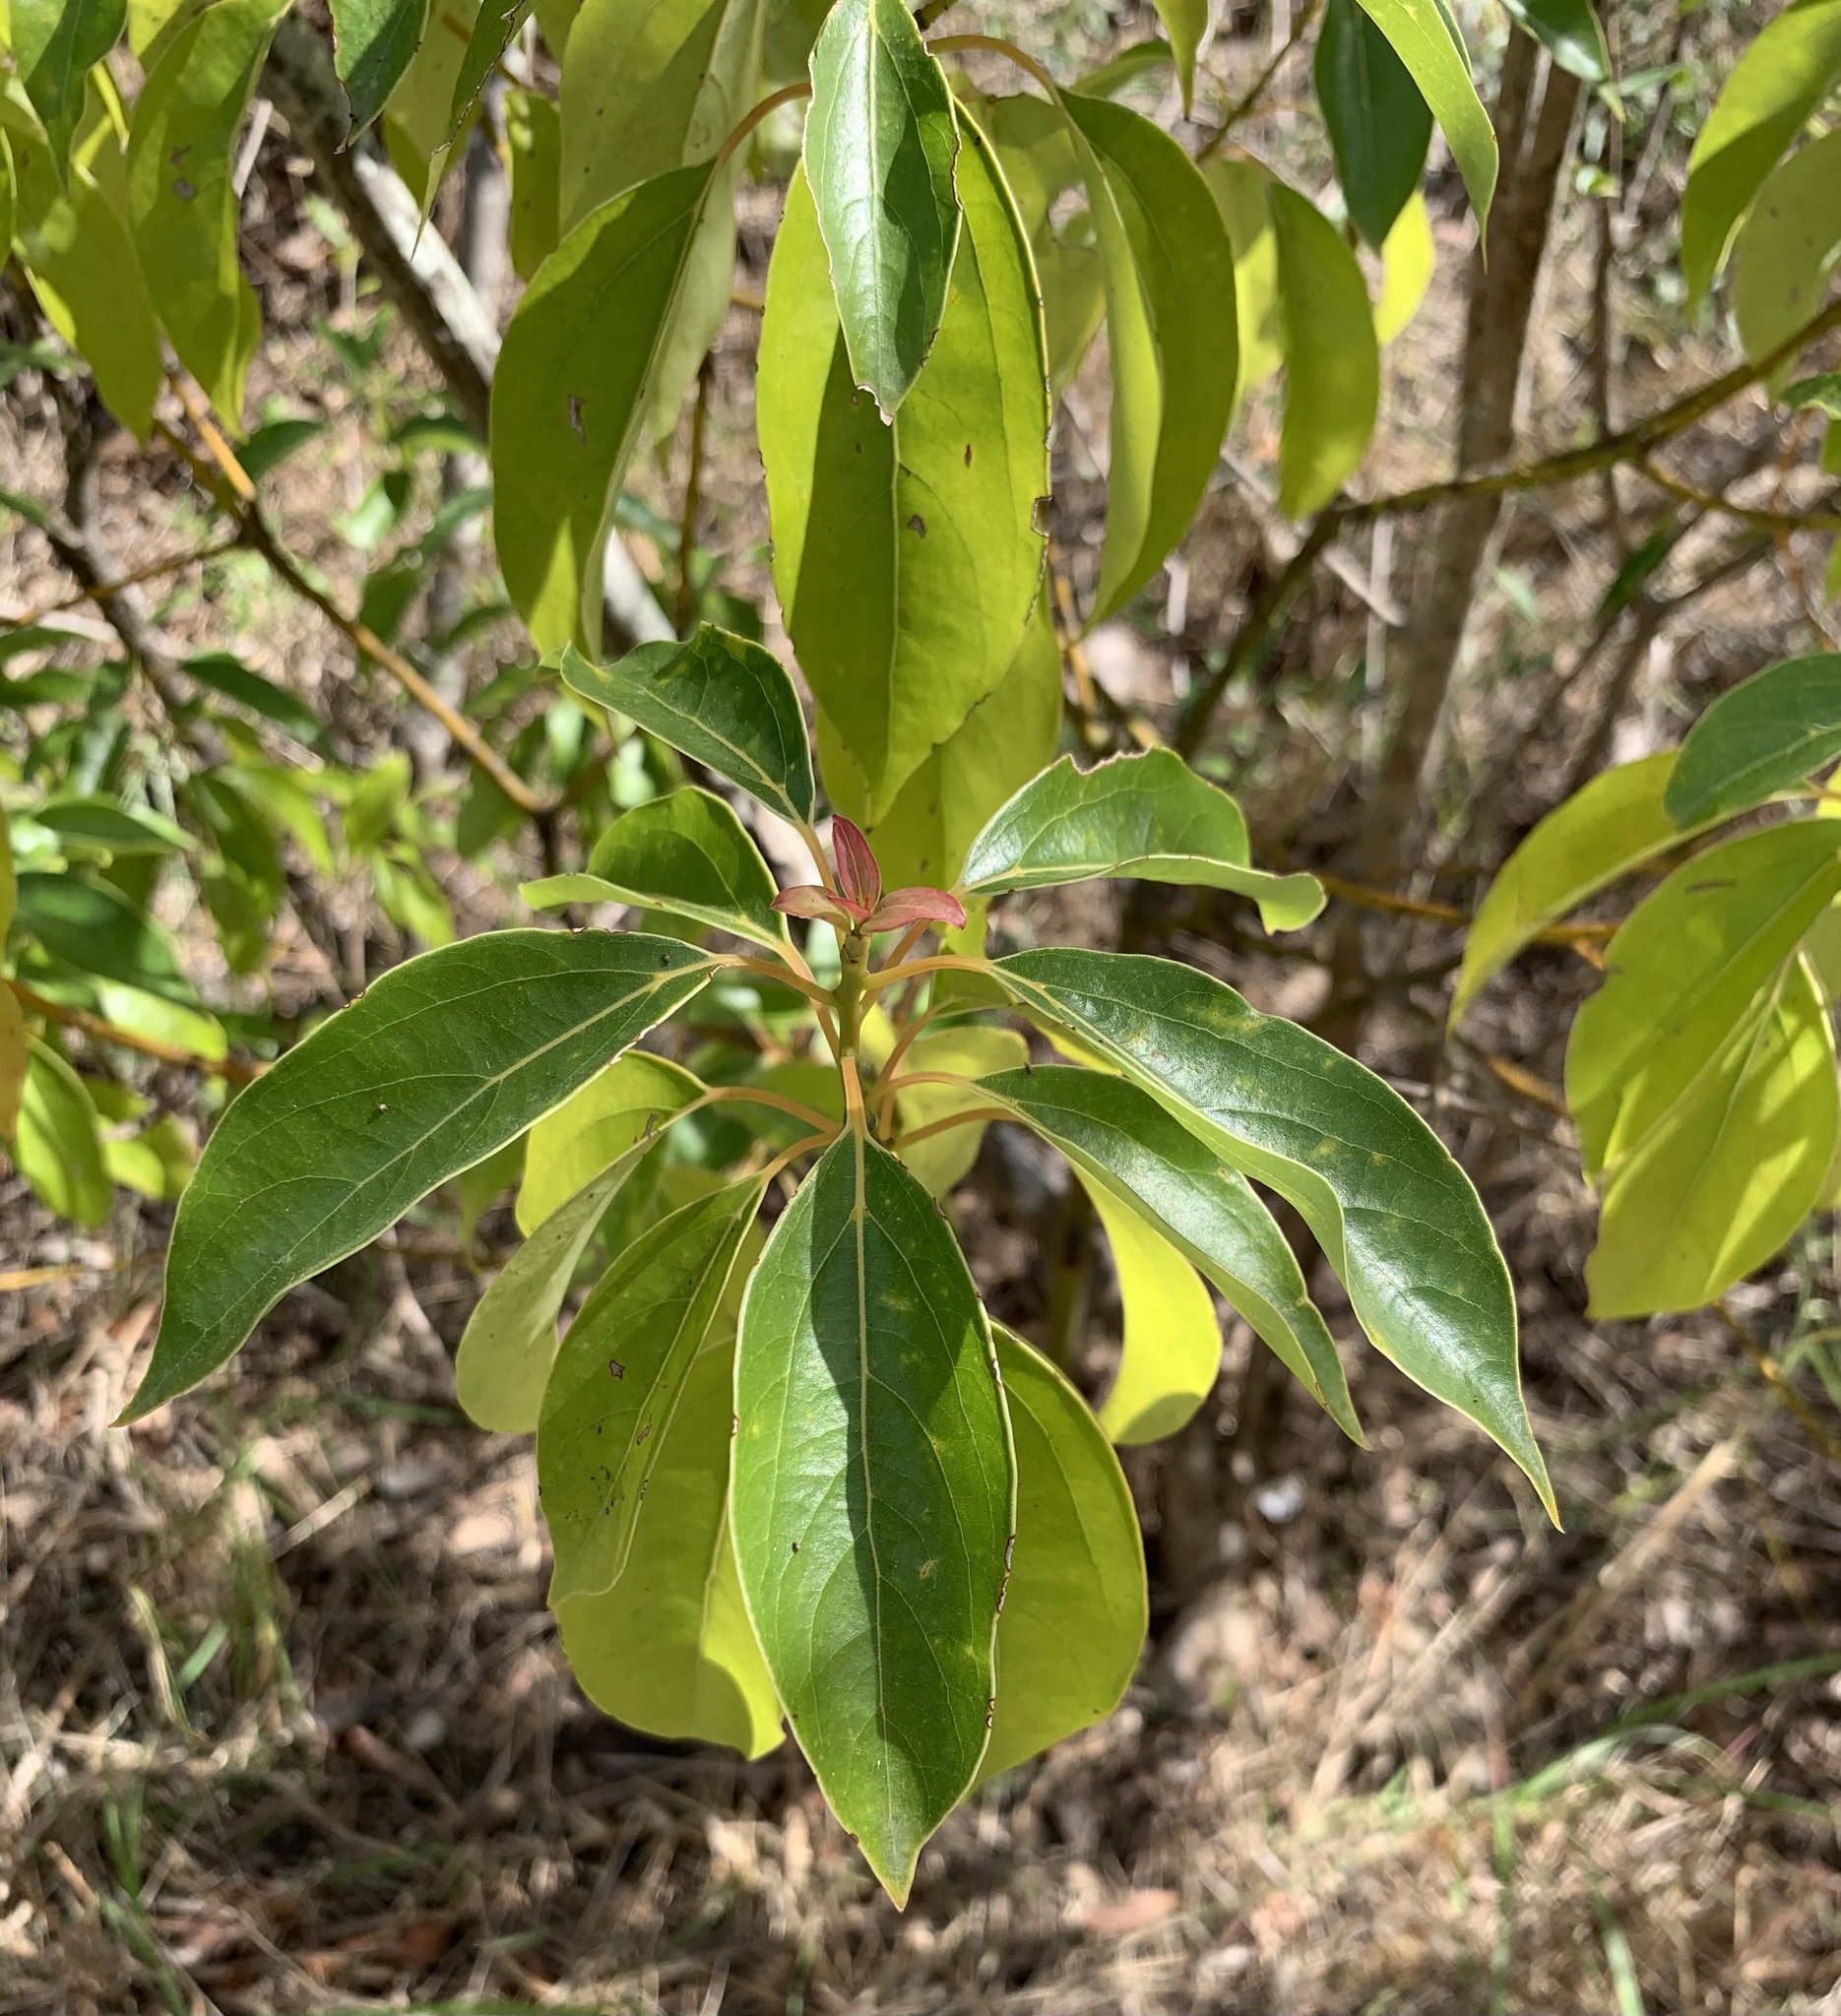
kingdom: Plantae
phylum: Tracheophyta
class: Magnoliopsida
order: Laurales
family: Lauraceae
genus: Cinnamomum
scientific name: Cinnamomum camphora
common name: Camphortree
